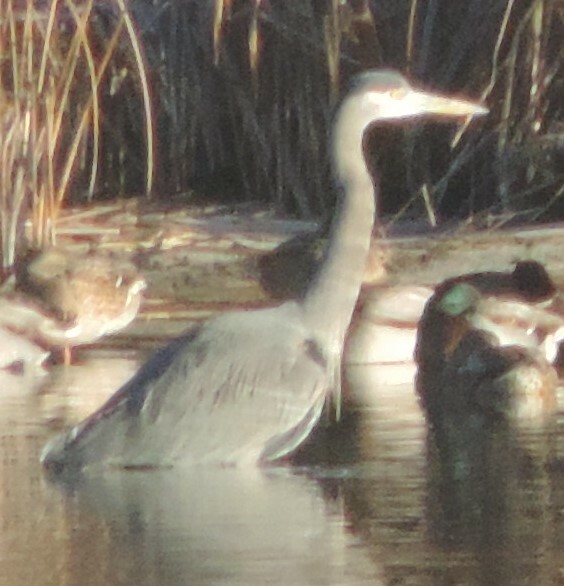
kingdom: Animalia
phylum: Chordata
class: Aves
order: Pelecaniformes
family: Ardeidae
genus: Ardea
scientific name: Ardea herodias
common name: Great blue heron
